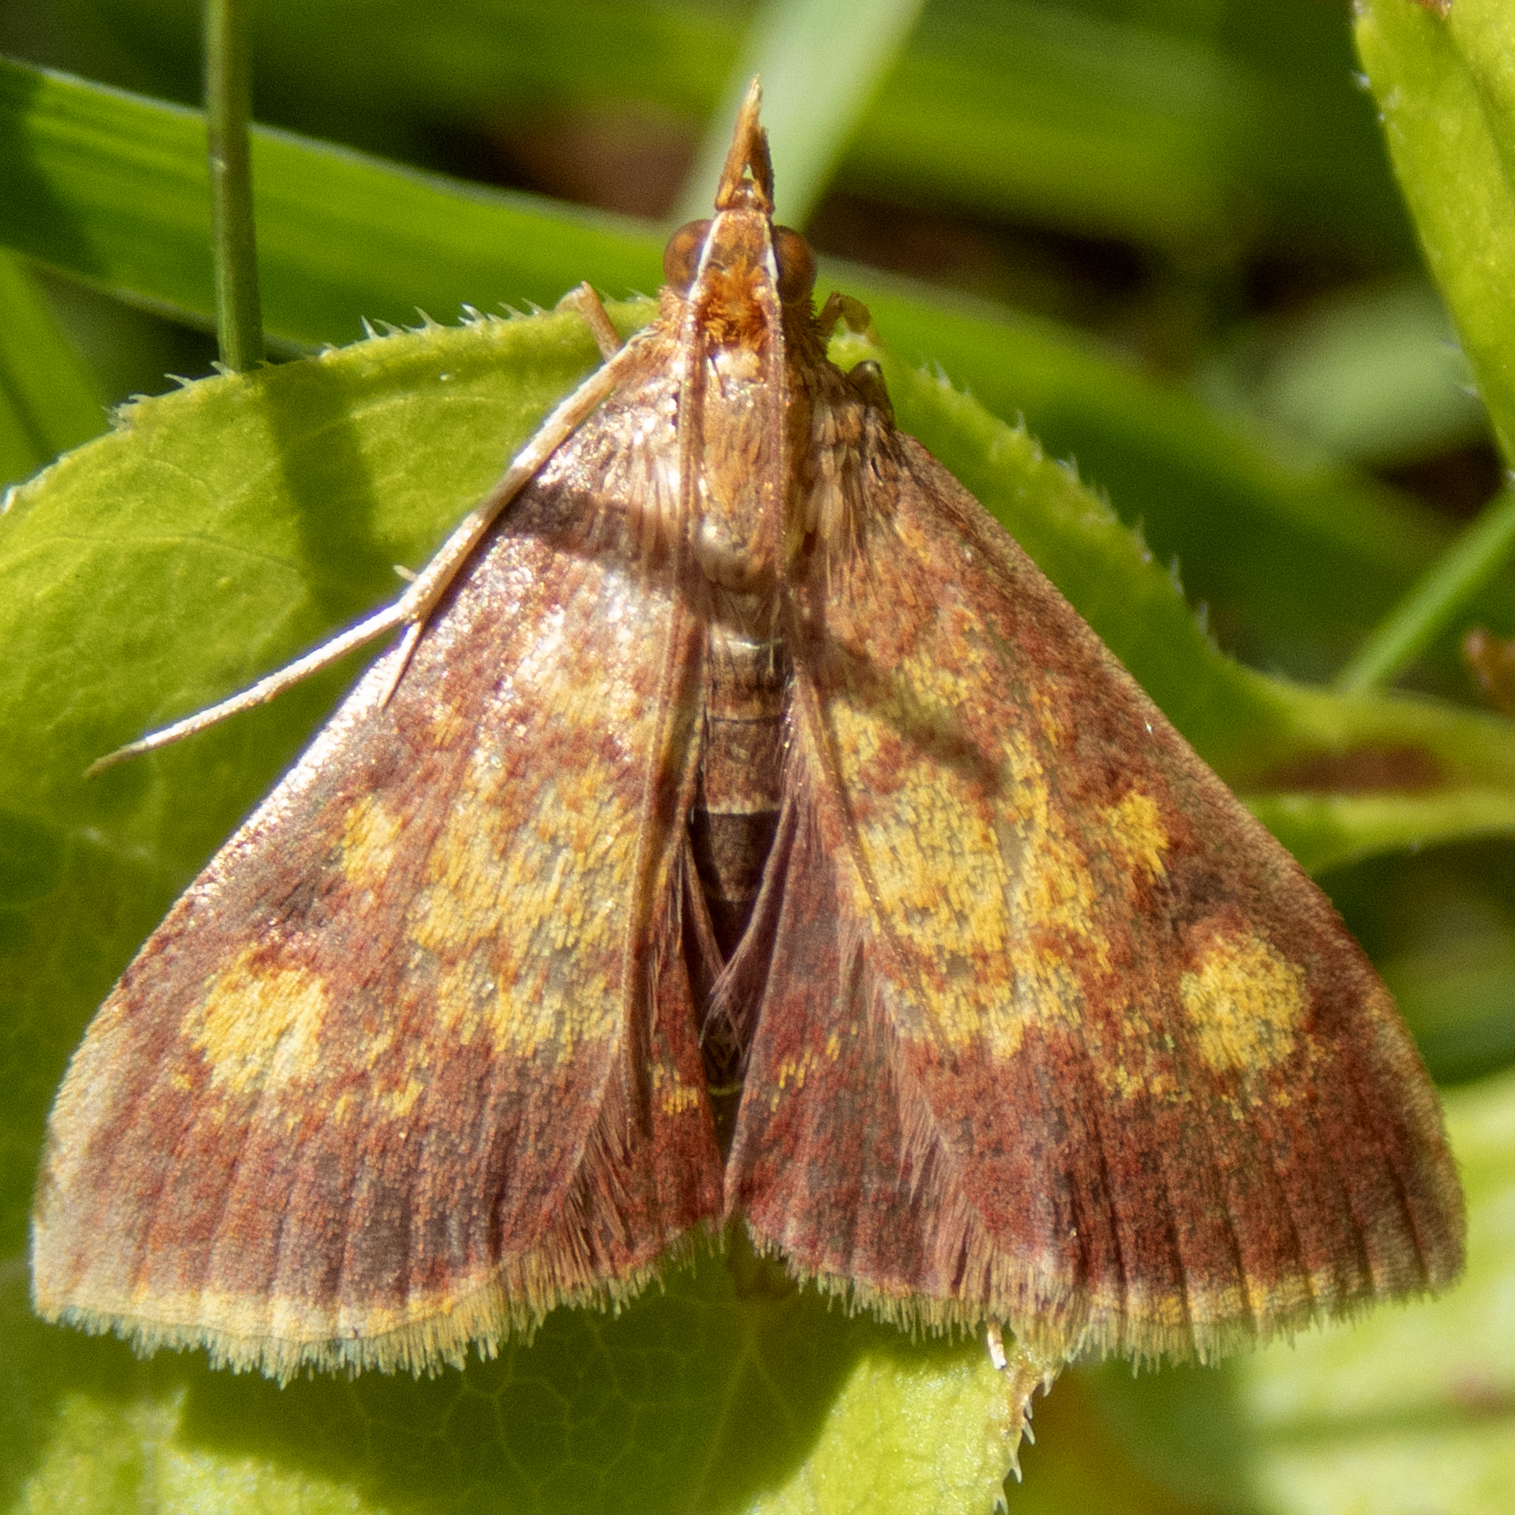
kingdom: Animalia
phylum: Arthropoda
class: Insecta
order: Lepidoptera
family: Crambidae
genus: Pyrausta
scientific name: Pyrausta acrionalis
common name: Mint-loving pyrausta moth
